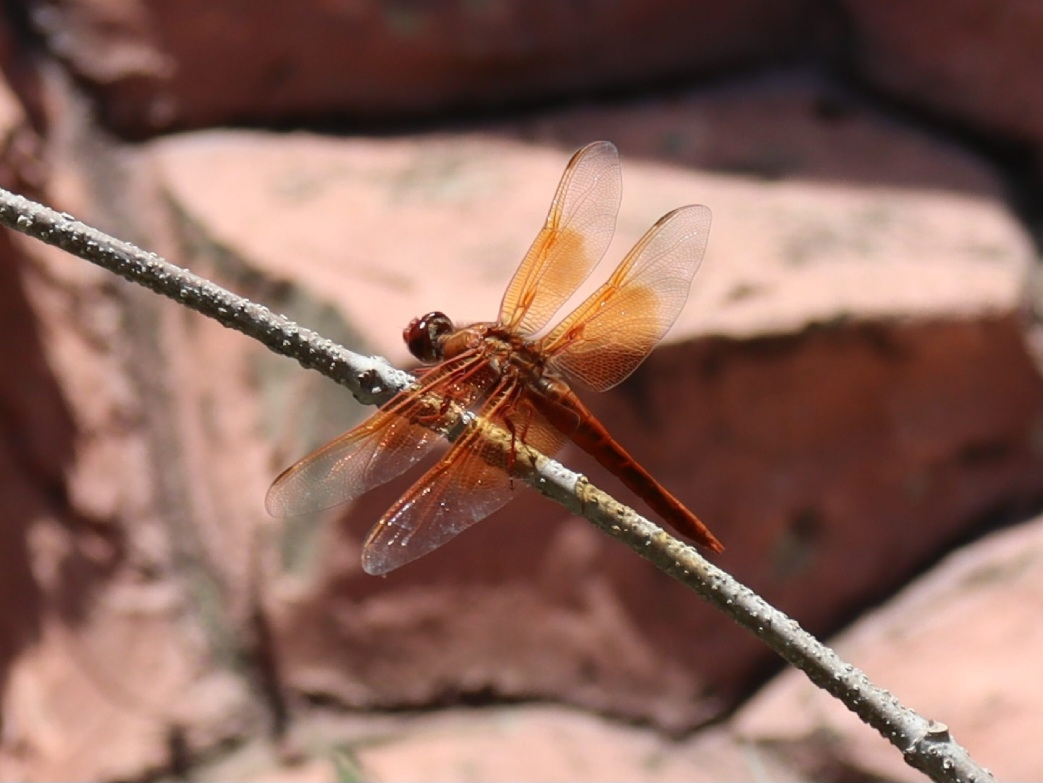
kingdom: Animalia
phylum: Arthropoda
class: Insecta
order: Odonata
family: Libellulidae
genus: Libellula
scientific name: Libellula saturata
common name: Flame skimmer
